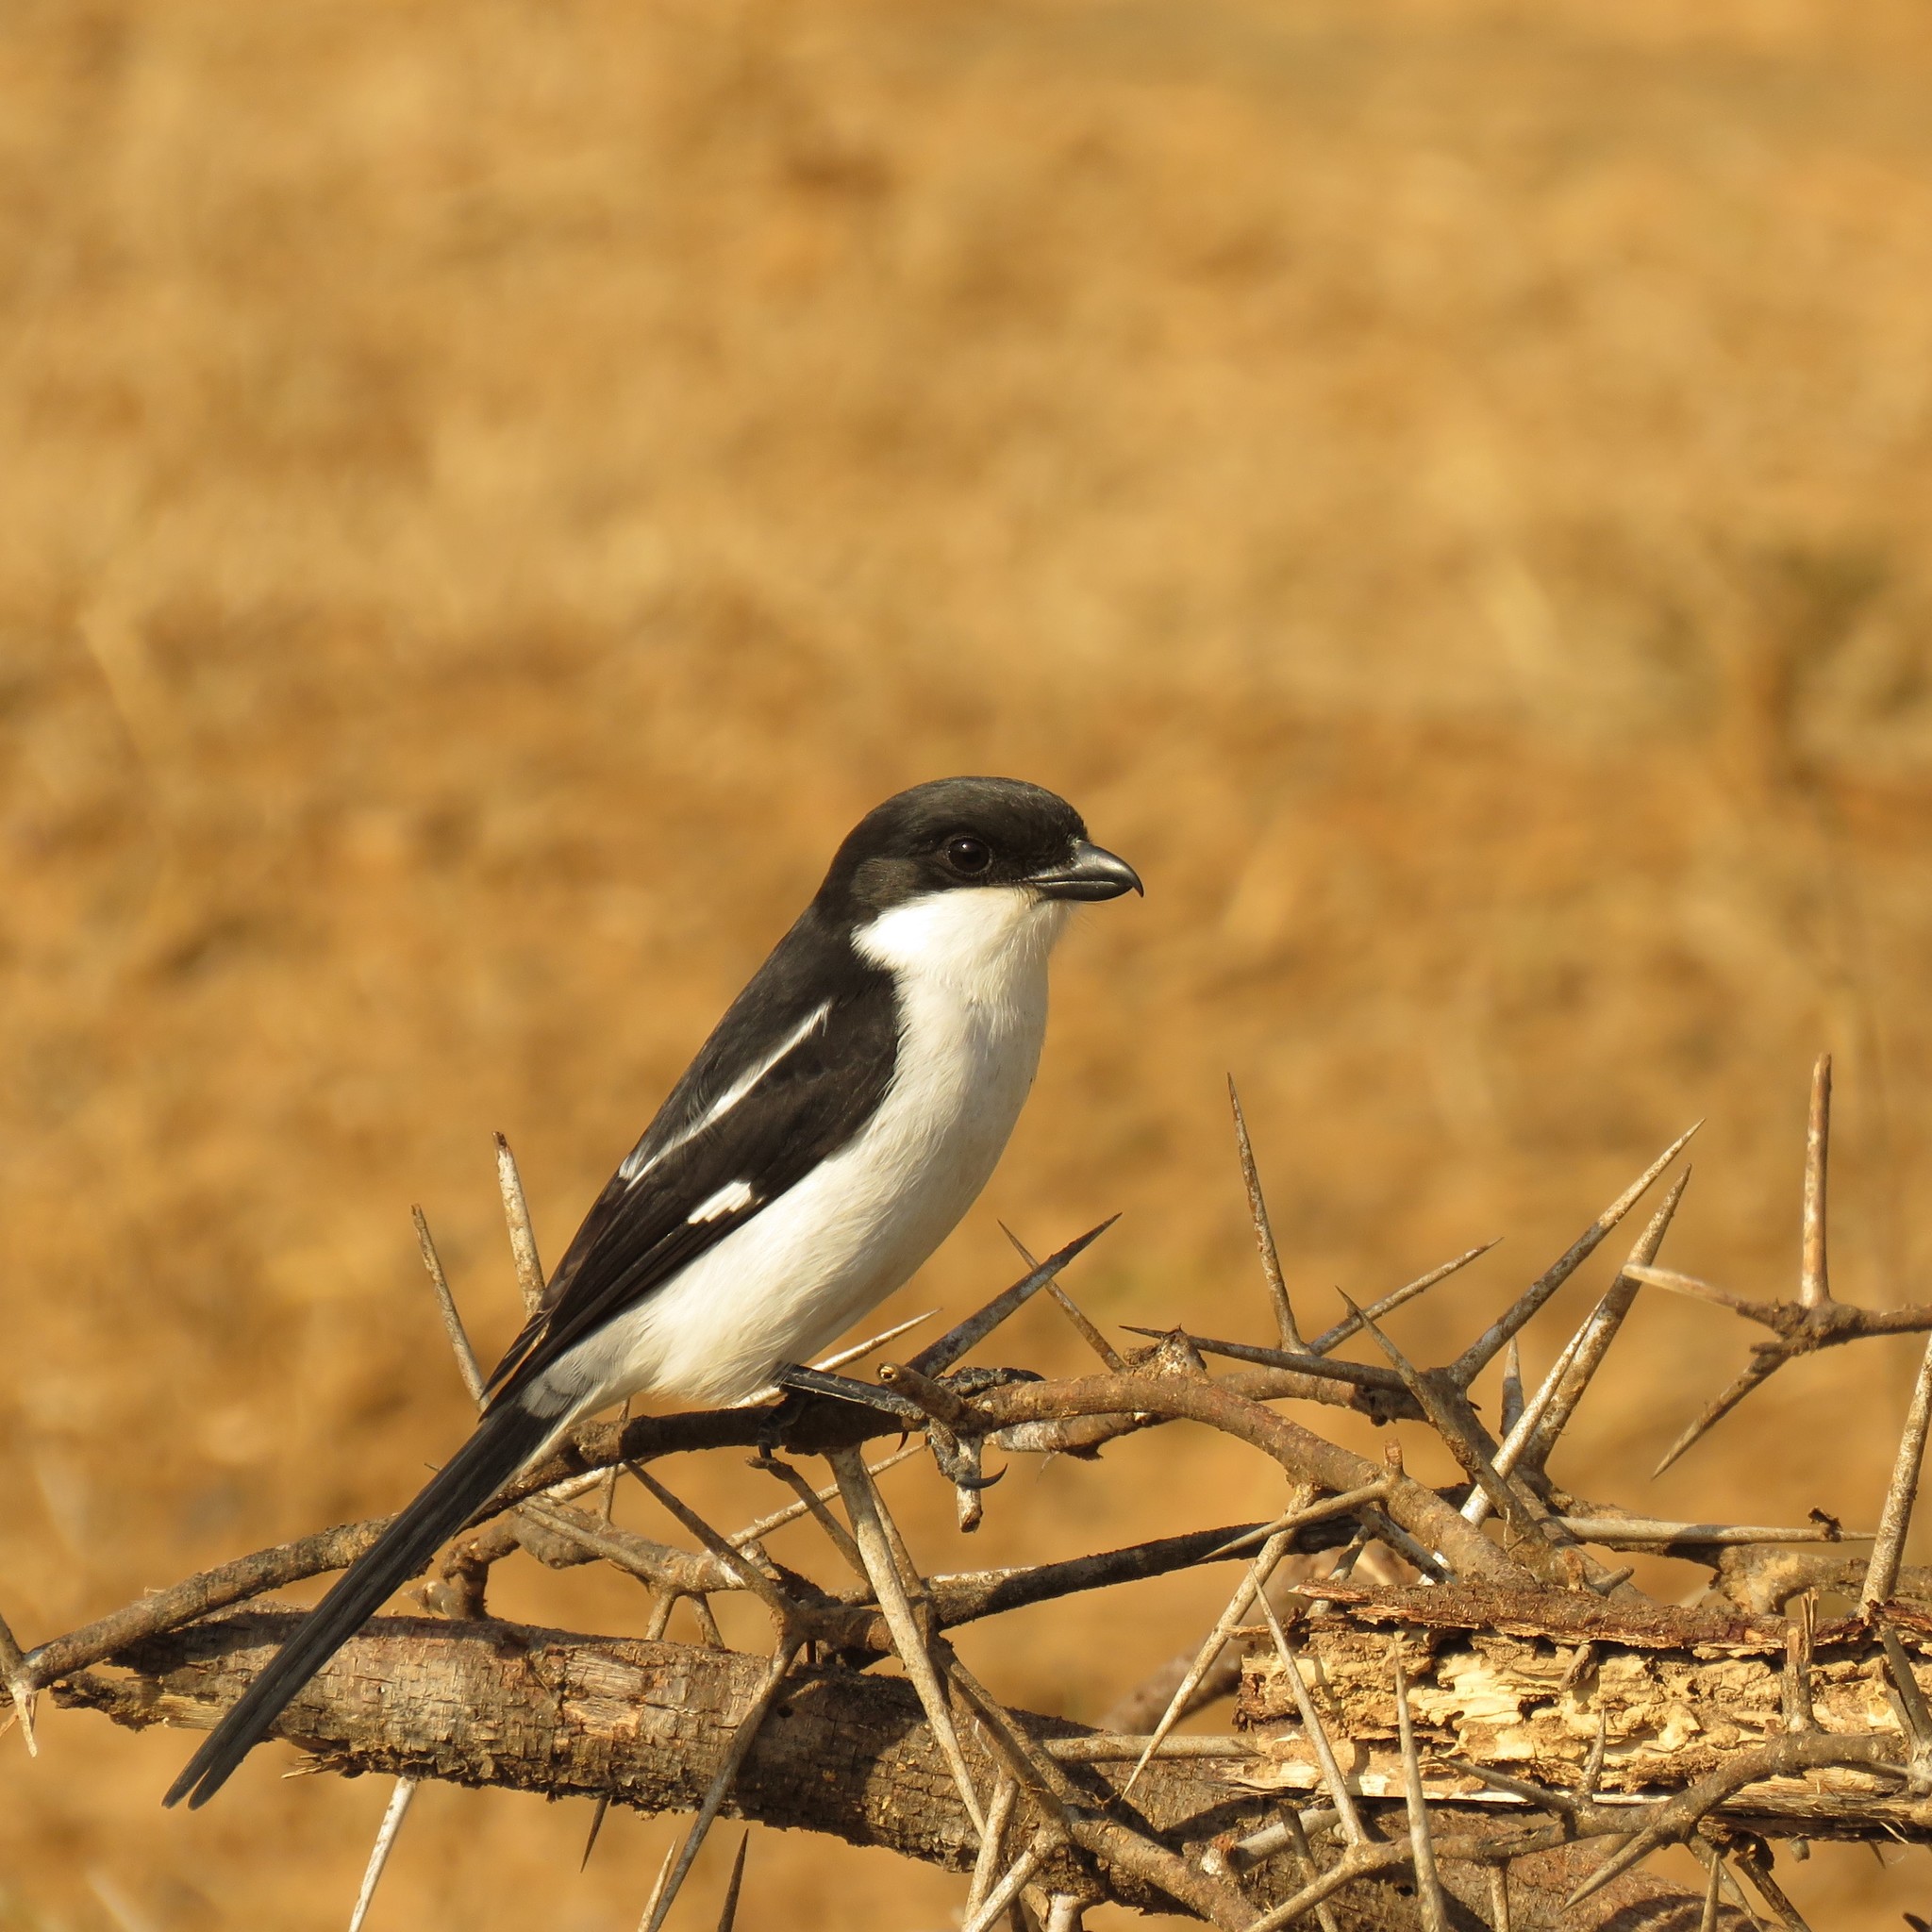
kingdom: Animalia
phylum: Chordata
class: Aves
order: Passeriformes
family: Laniidae
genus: Lanius
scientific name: Lanius collaris
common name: Southern fiscal
